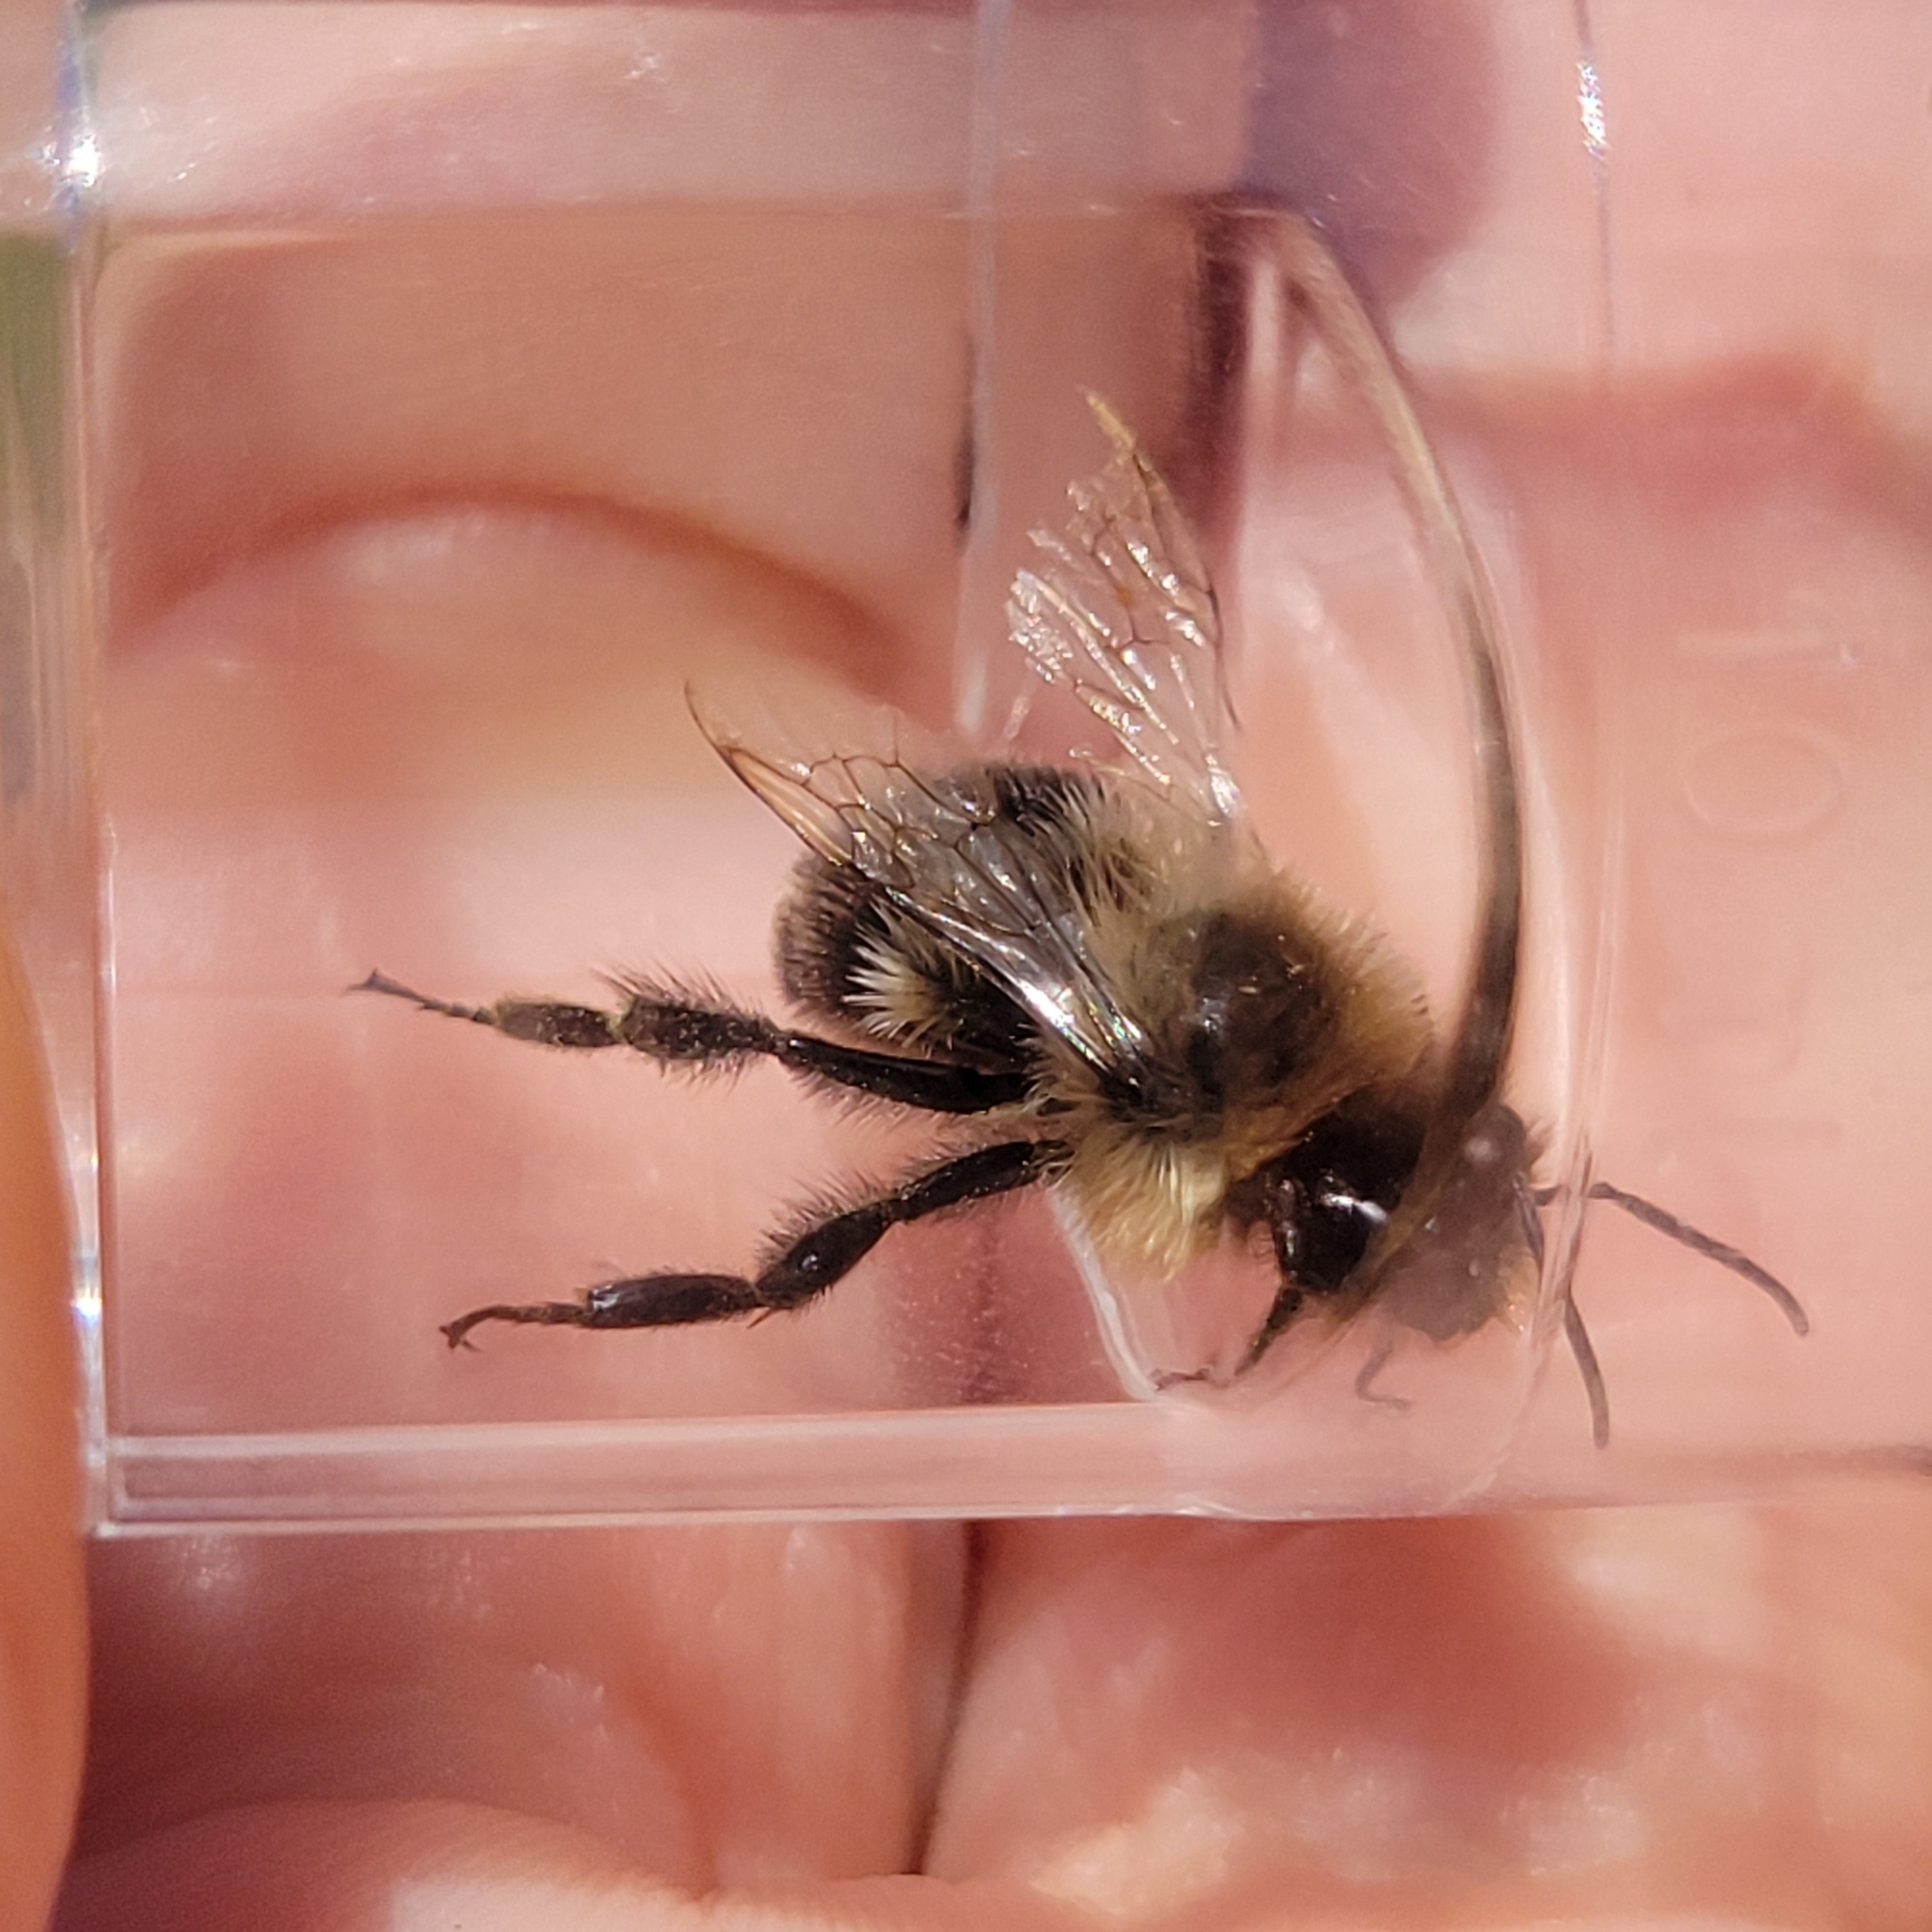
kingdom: Animalia
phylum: Arthropoda
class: Insecta
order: Hymenoptera
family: Apidae
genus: Bombus
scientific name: Bombus impatiens
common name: Common eastern bumble bee
